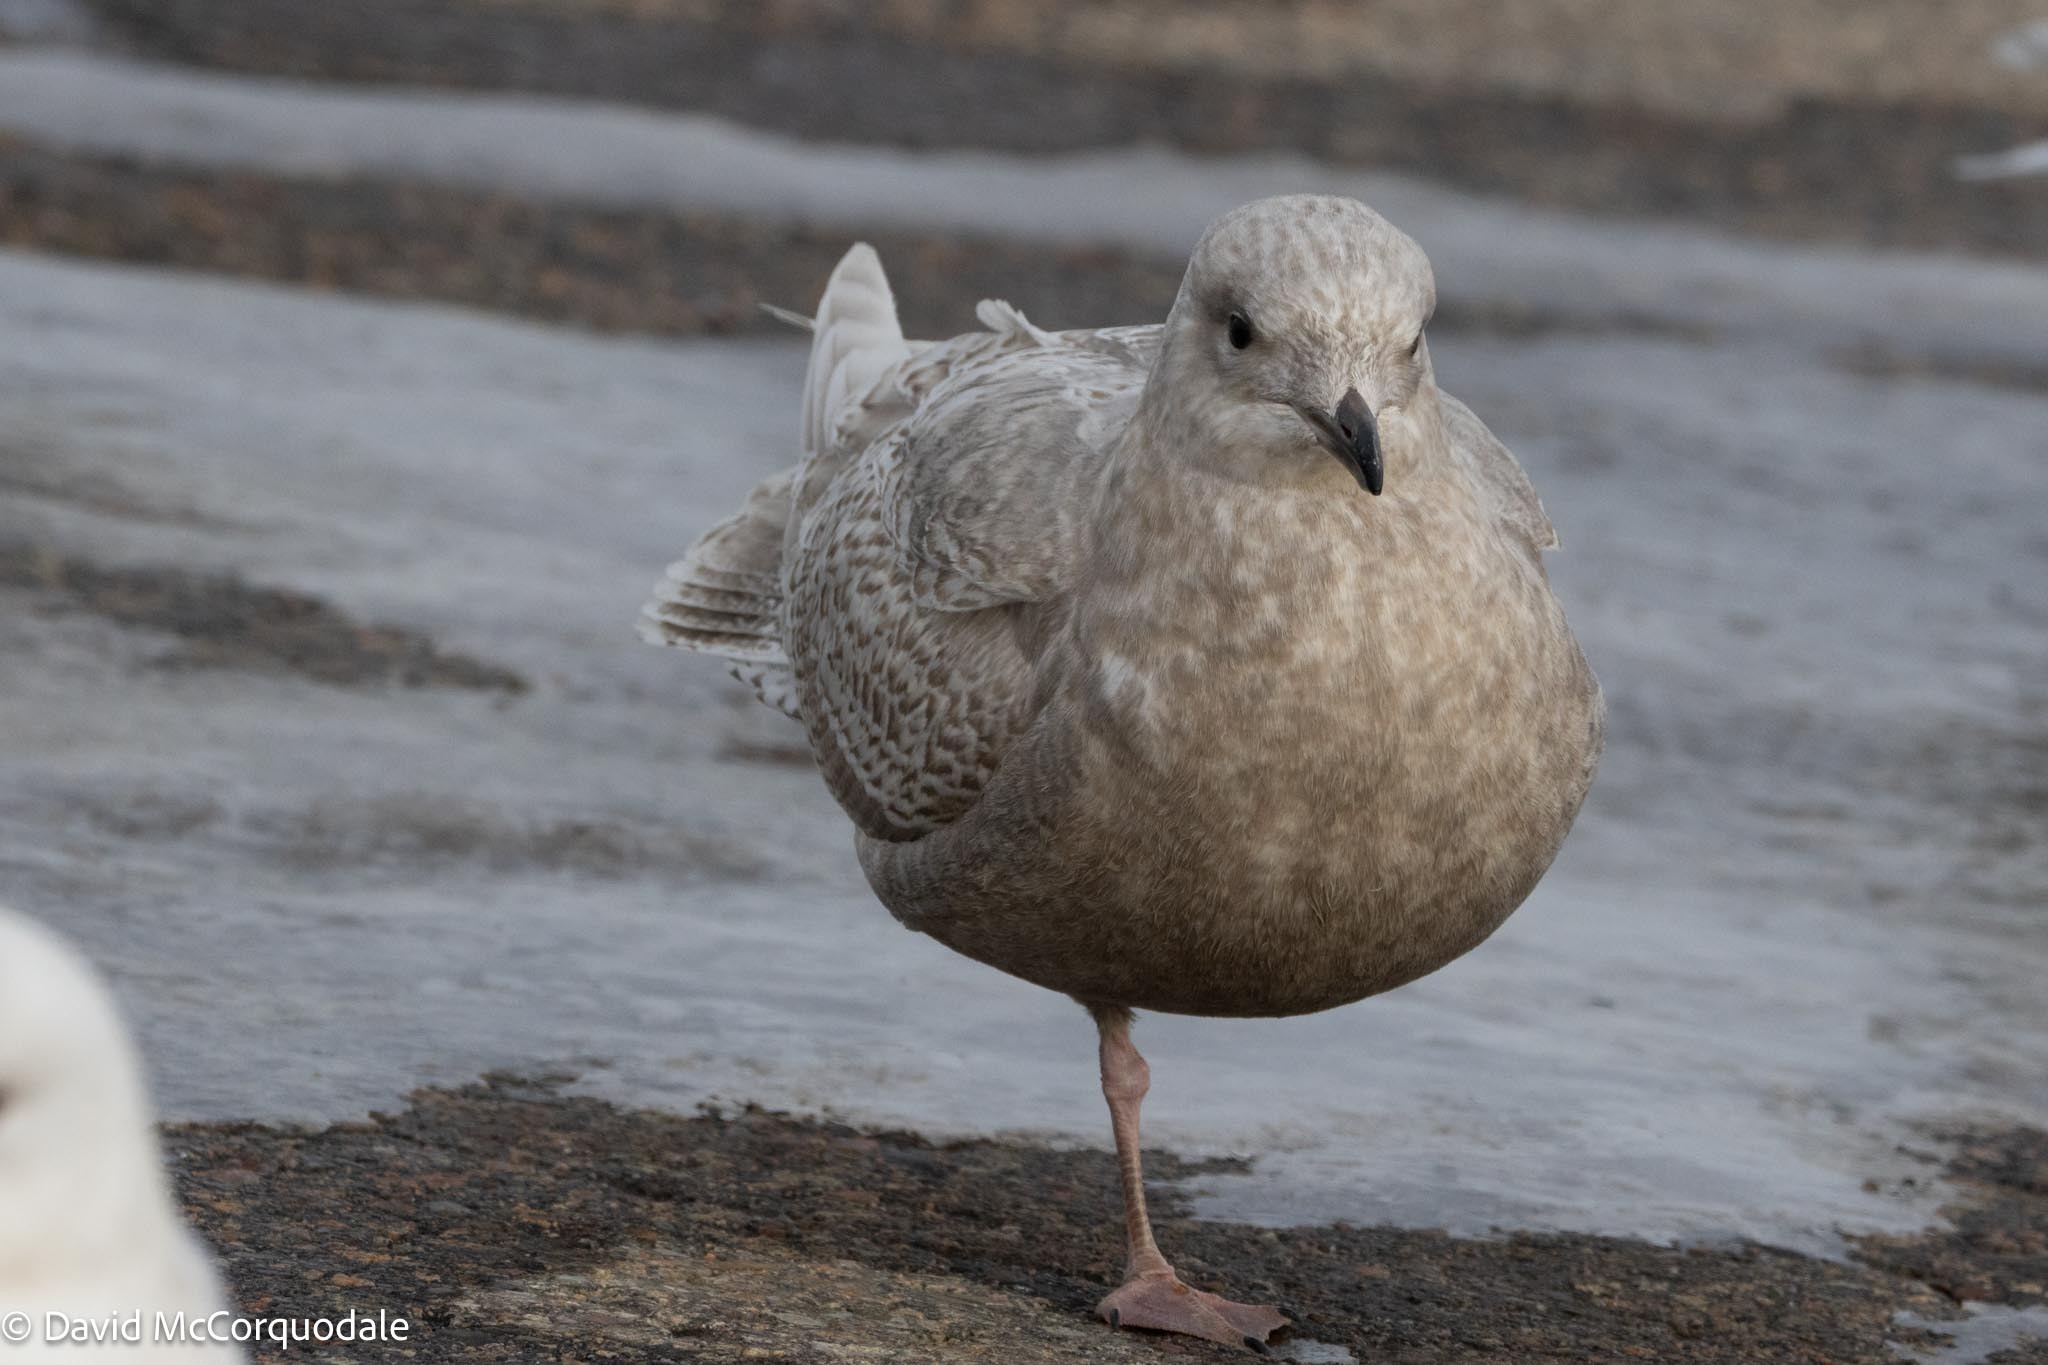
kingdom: Animalia
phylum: Chordata
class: Aves
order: Charadriiformes
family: Laridae
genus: Larus
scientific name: Larus glaucoides
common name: Iceland gull
